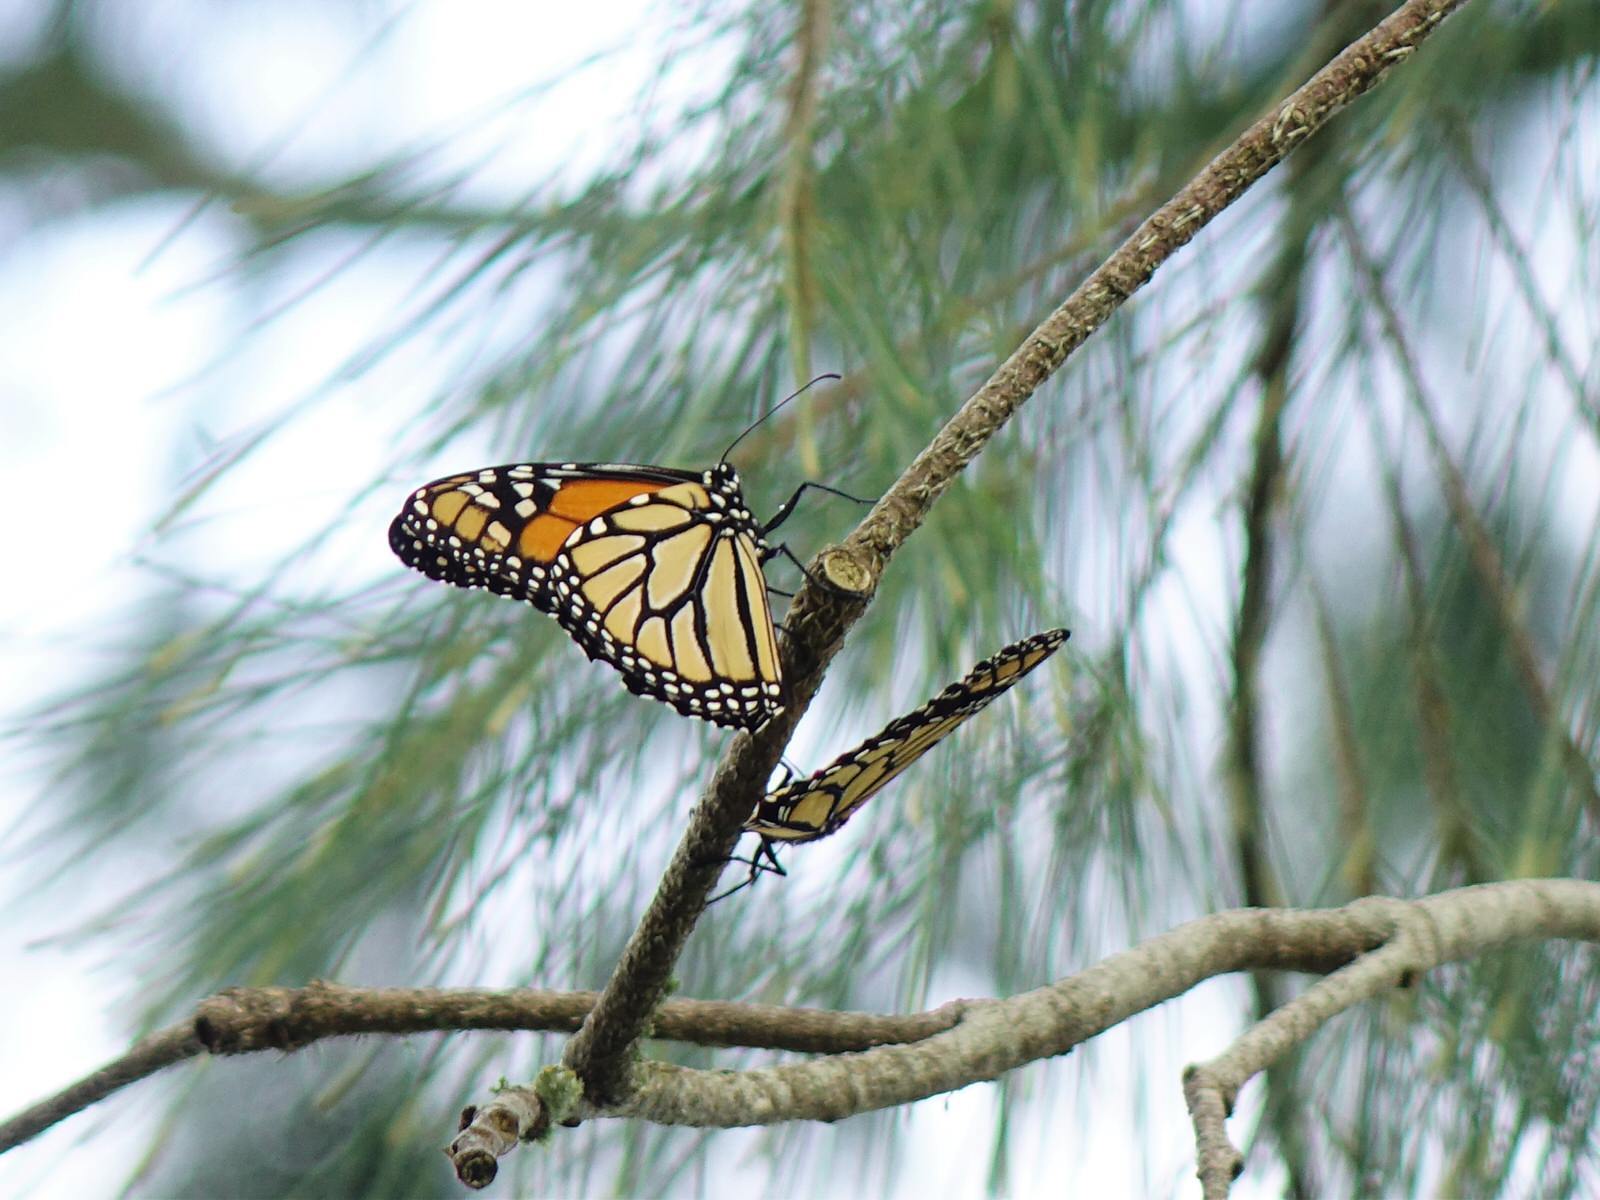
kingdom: Animalia
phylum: Arthropoda
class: Insecta
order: Lepidoptera
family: Nymphalidae
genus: Danaus
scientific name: Danaus plexippus
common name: Monarch
